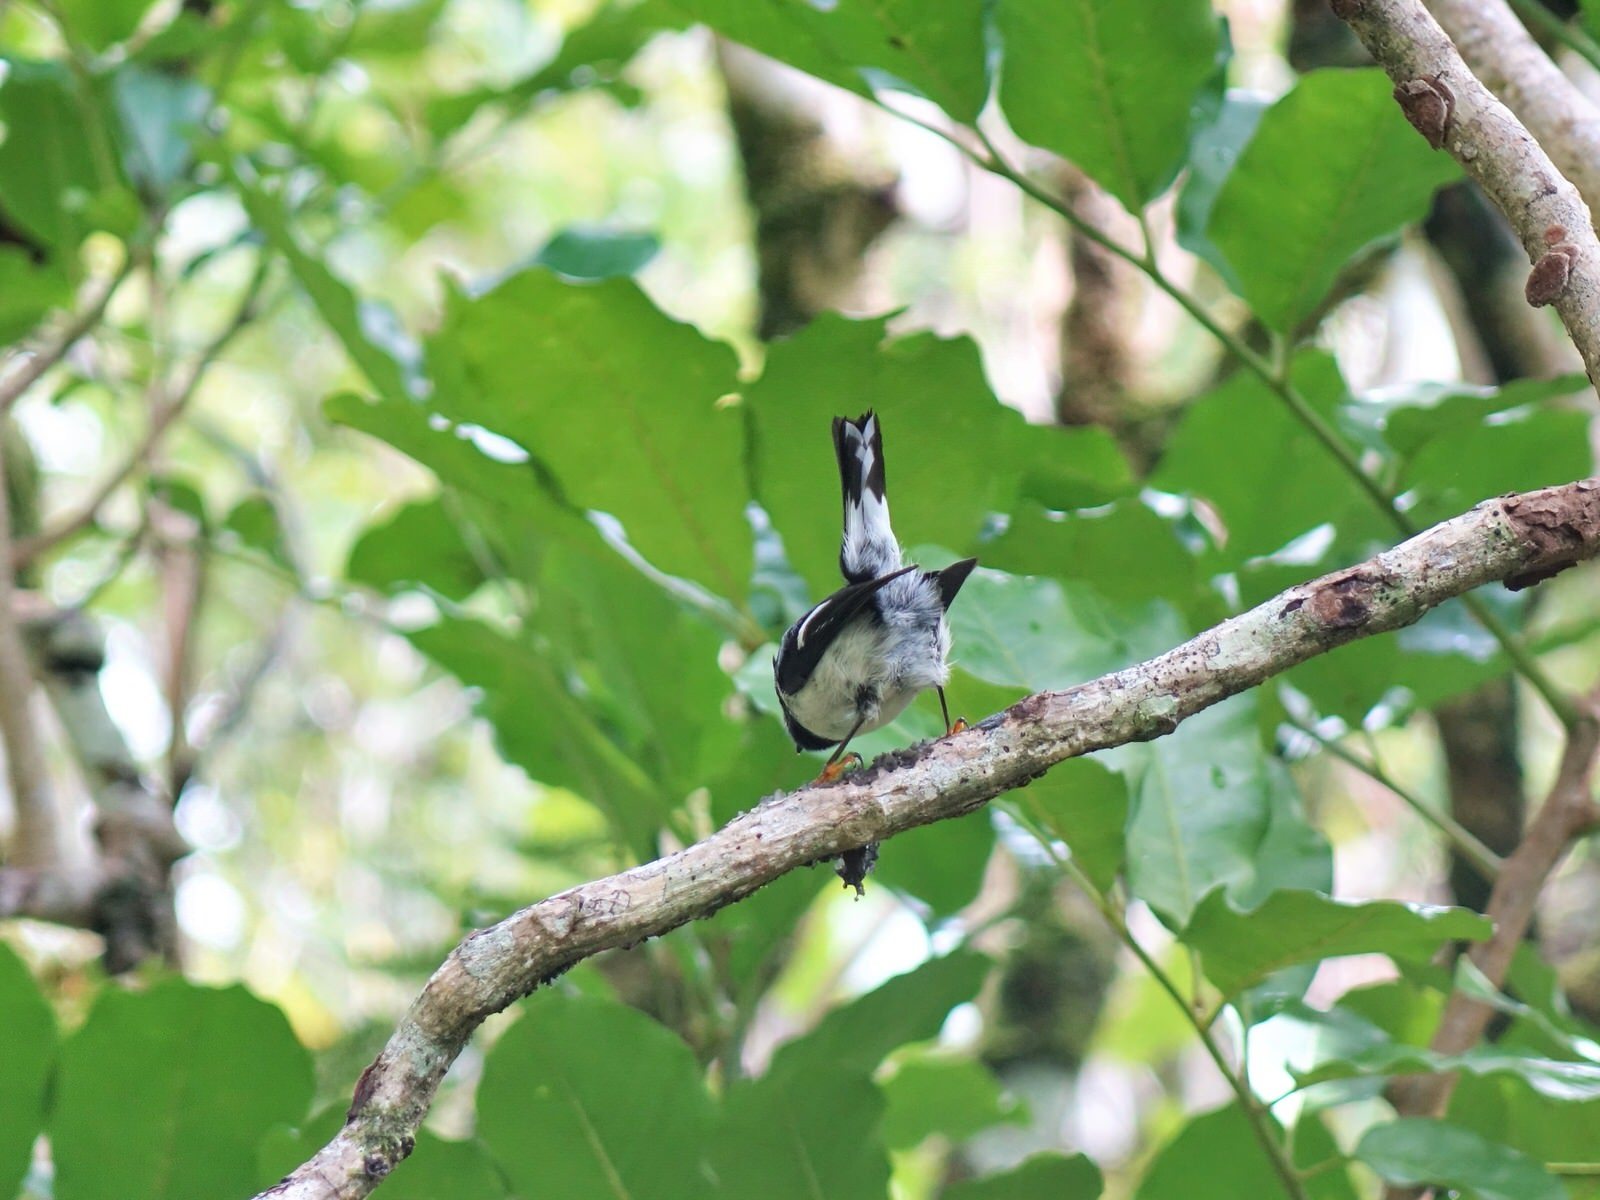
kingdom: Animalia
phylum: Chordata
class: Aves
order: Passeriformes
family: Petroicidae
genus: Petroica
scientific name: Petroica macrocephala
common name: Tomtit
